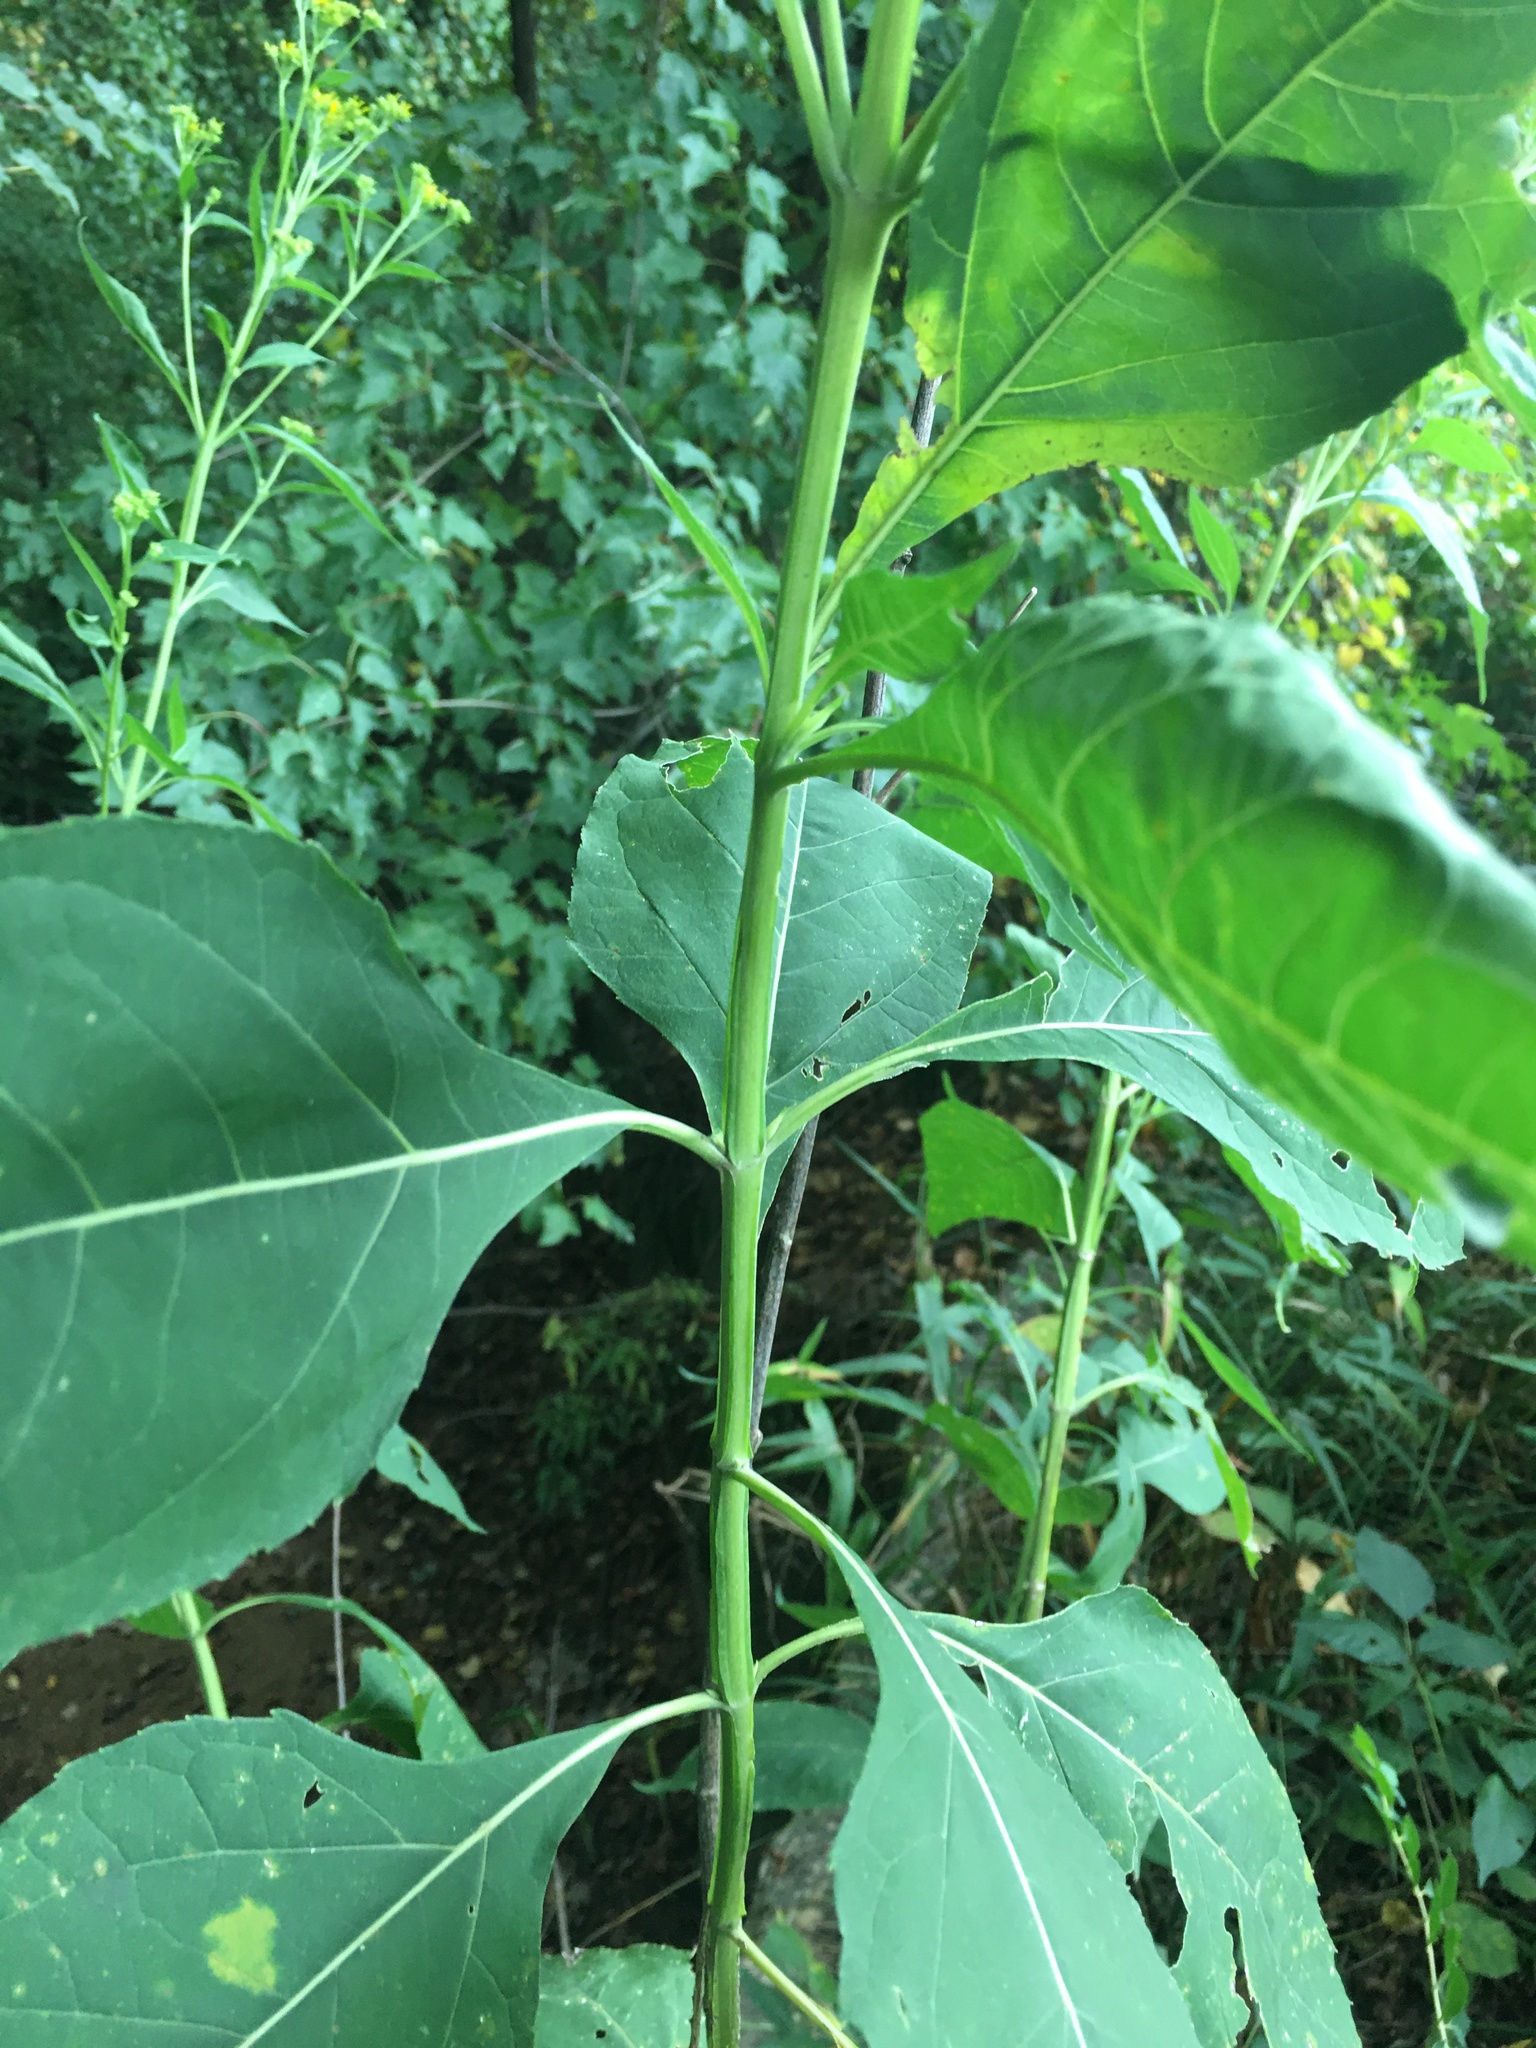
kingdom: Plantae
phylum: Tracheophyta
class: Magnoliopsida
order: Asterales
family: Asteraceae
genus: Verbesina
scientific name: Verbesina occidentalis
